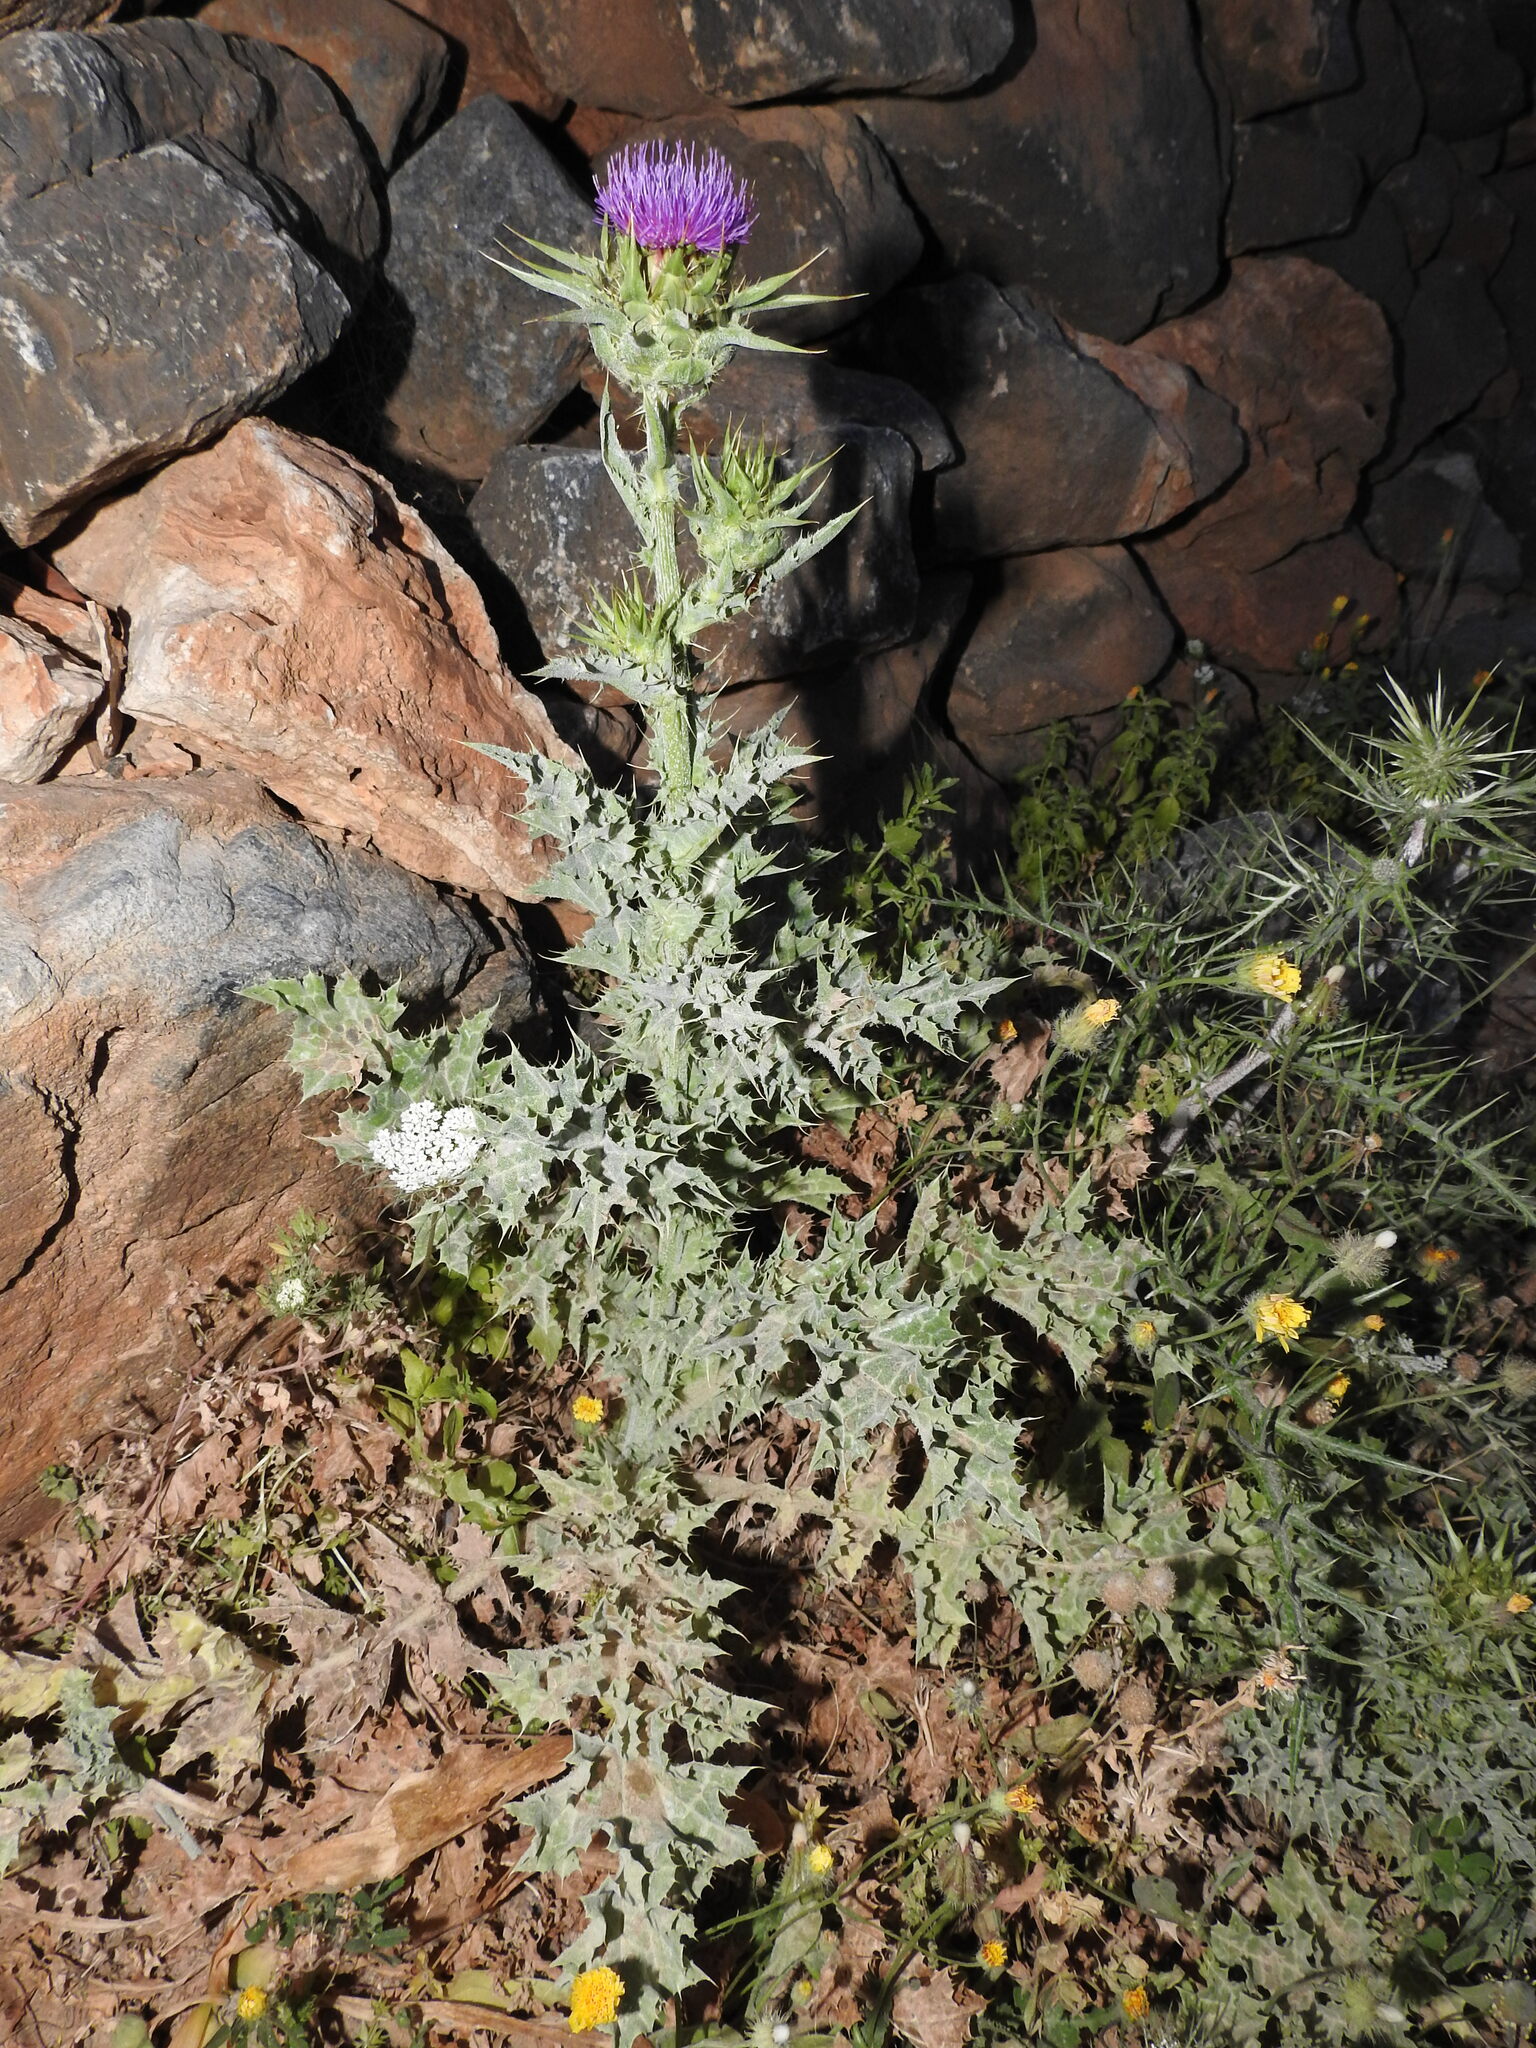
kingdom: Plantae
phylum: Tracheophyta
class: Magnoliopsida
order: Asterales
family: Asteraceae
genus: Silybum
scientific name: Silybum marianum
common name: Milk thistle
